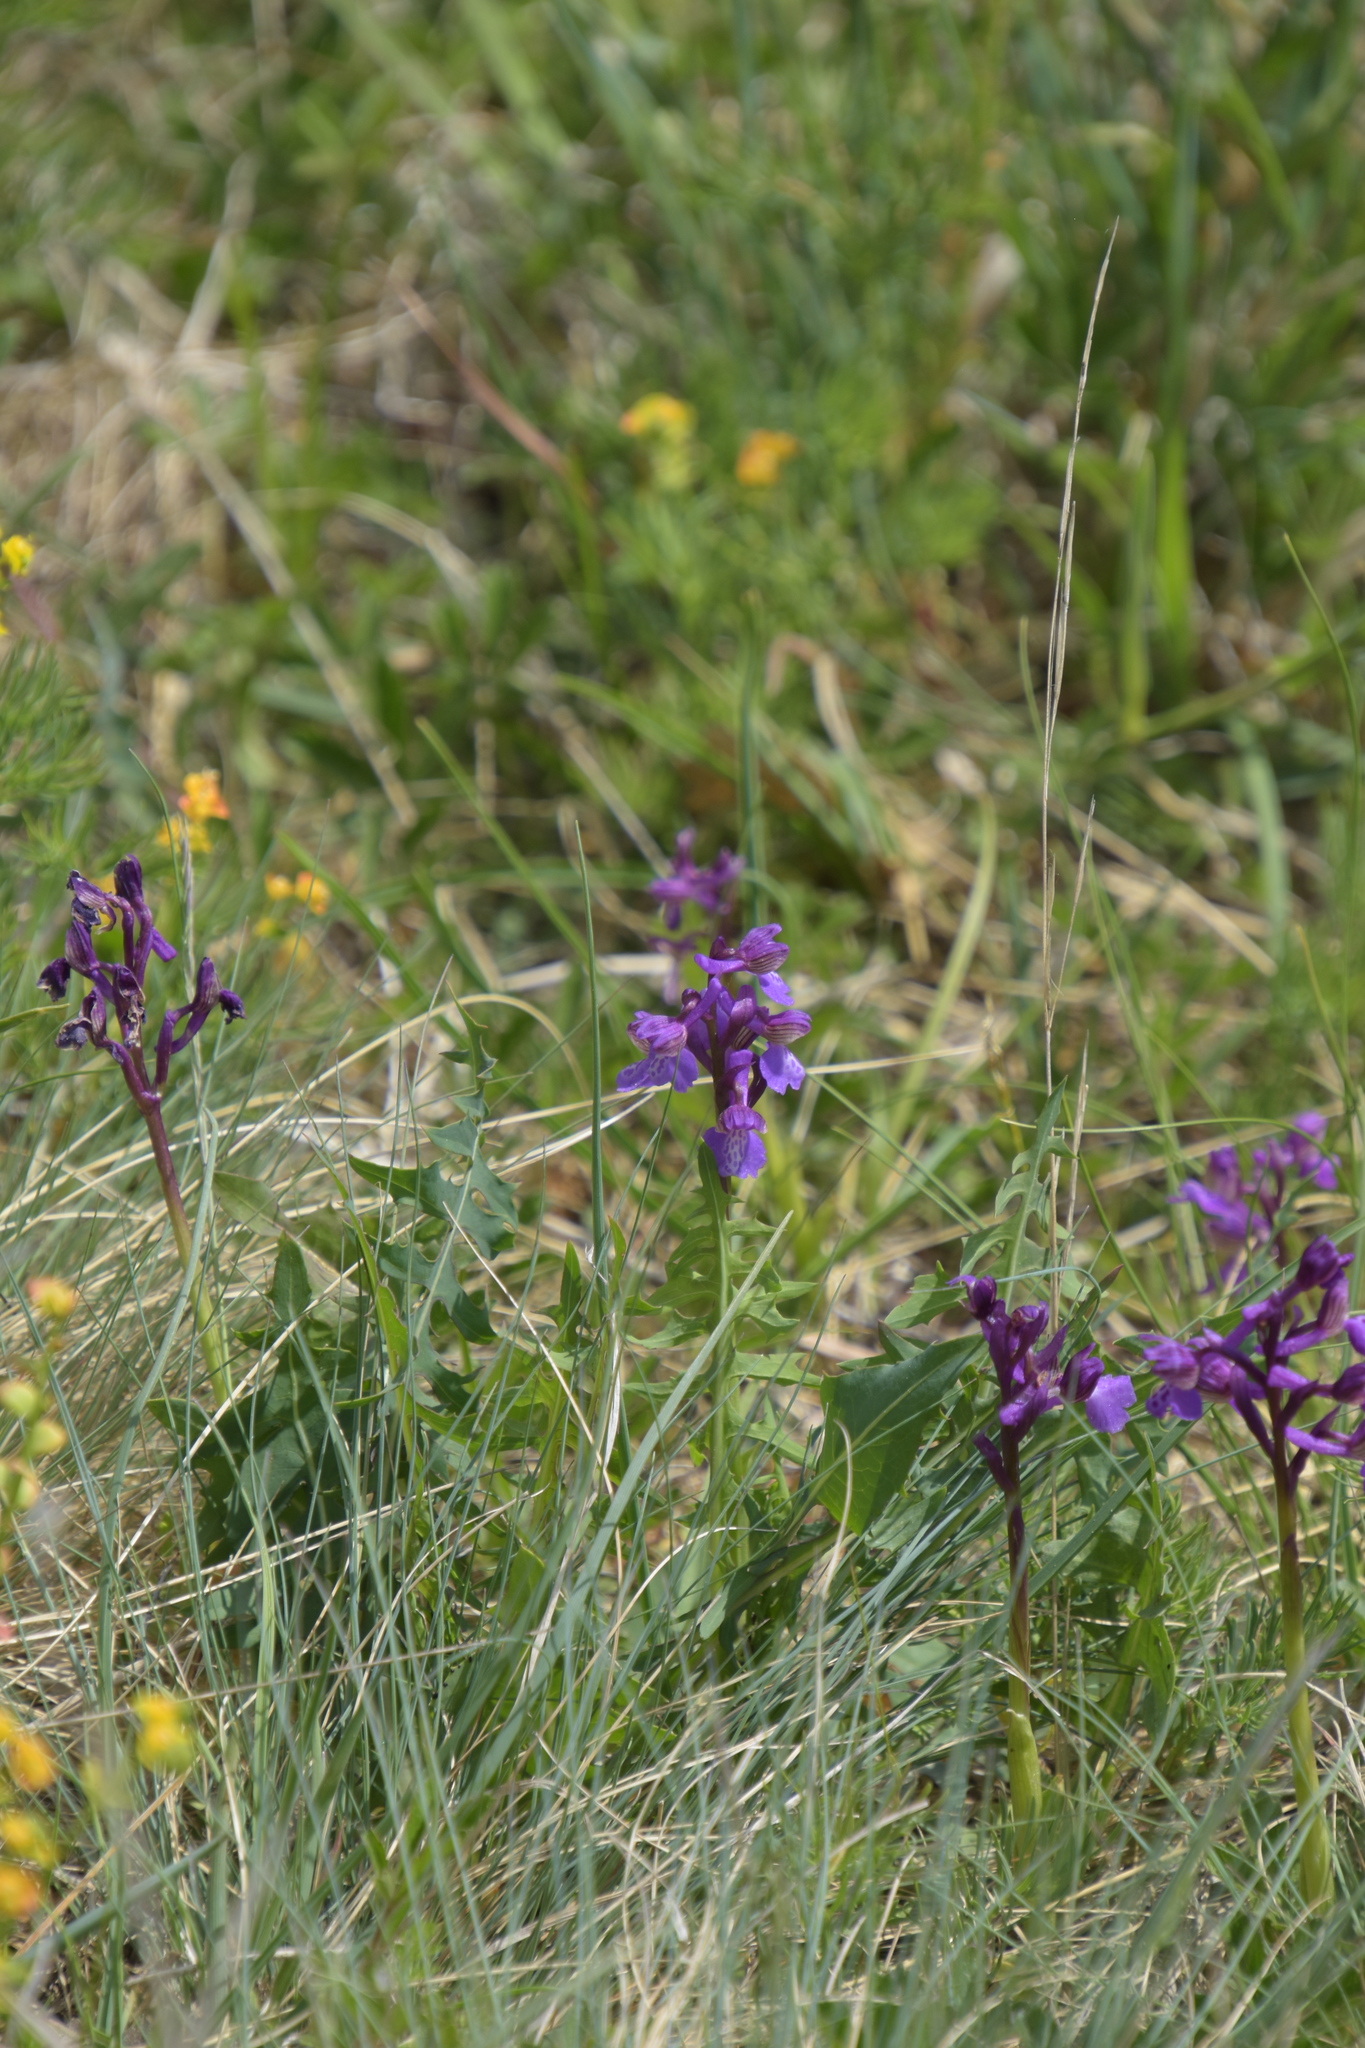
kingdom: Plantae
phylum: Tracheophyta
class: Liliopsida
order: Asparagales
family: Orchidaceae
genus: Anacamptis
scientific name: Anacamptis morio
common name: Green-winged orchid
